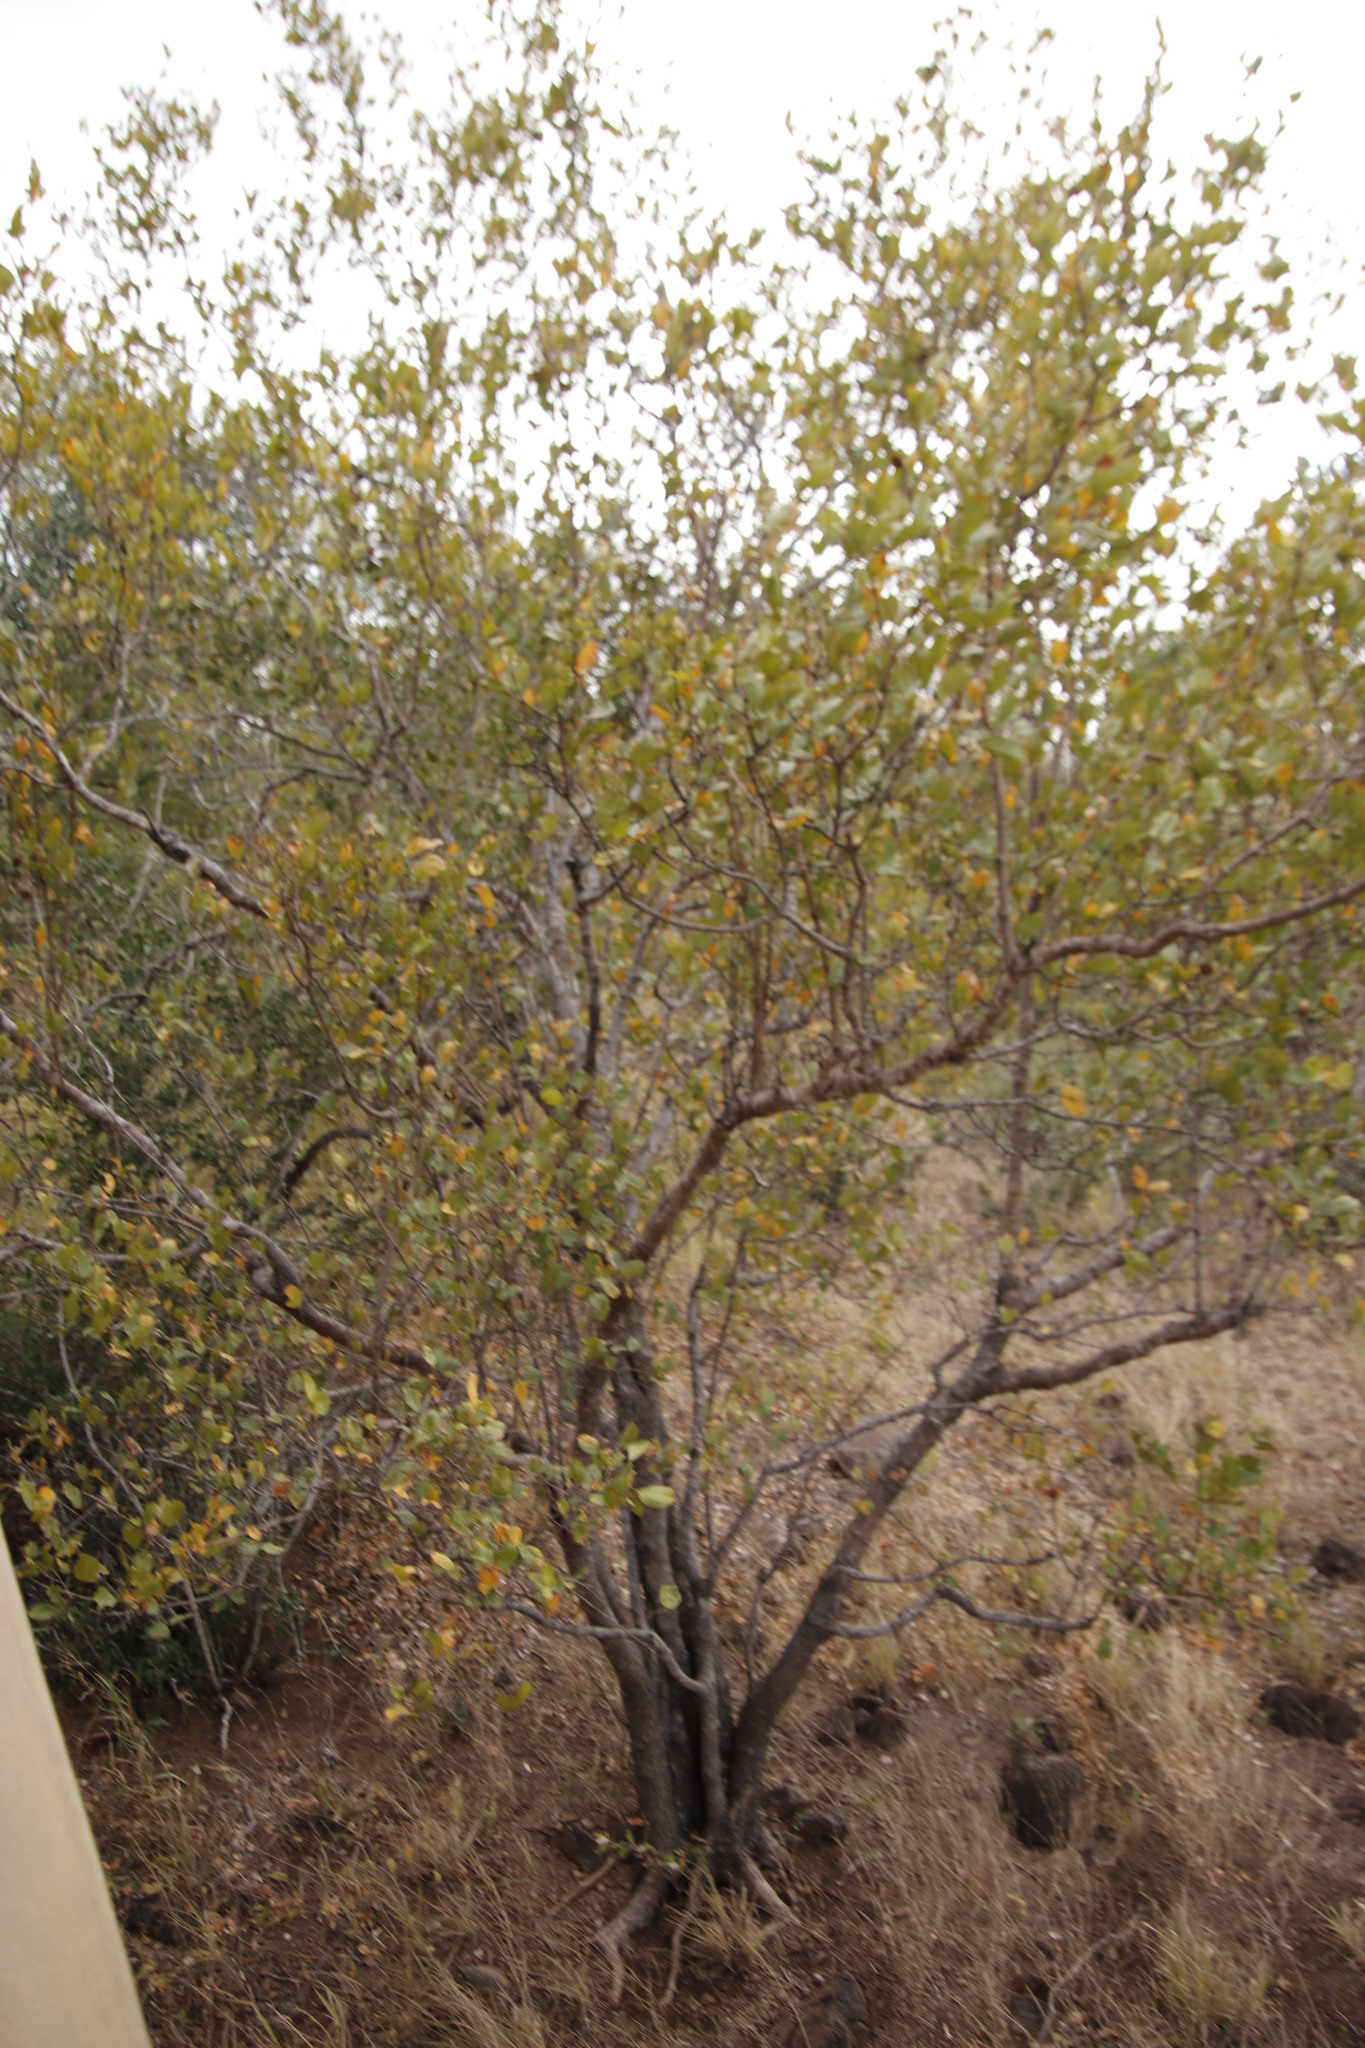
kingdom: Plantae
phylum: Tracheophyta
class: Magnoliopsida
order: Myrtales
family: Combretaceae
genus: Combretum
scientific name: Combretum apiculatum
